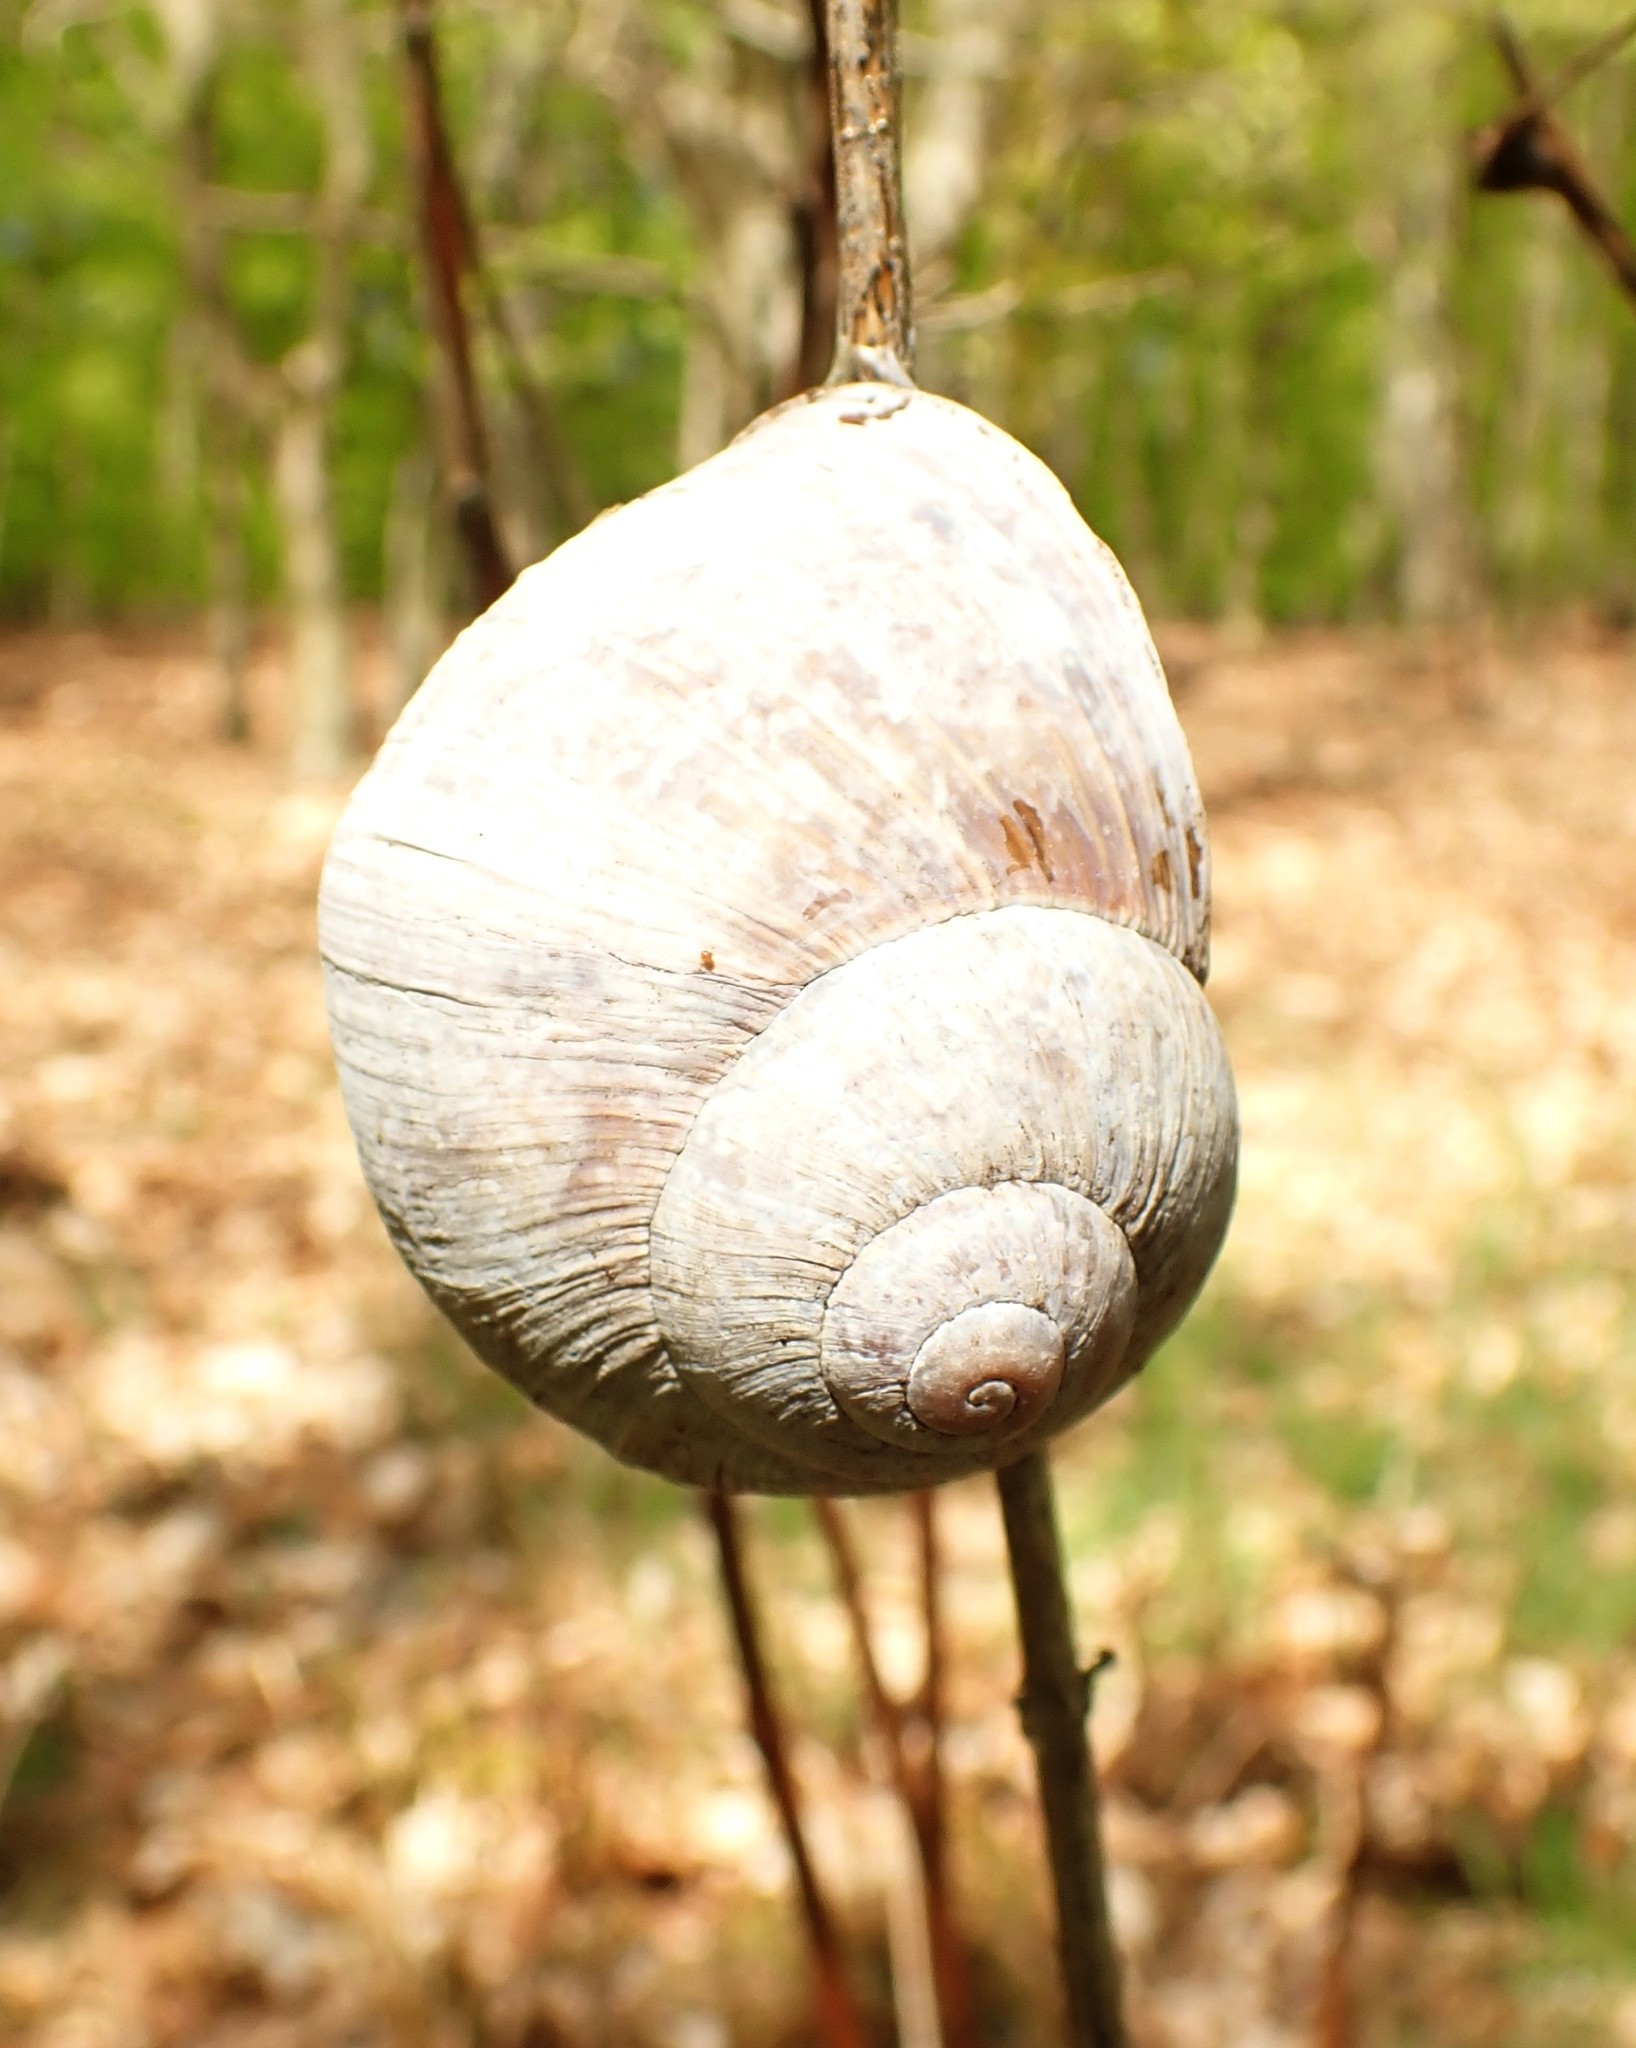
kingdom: Animalia
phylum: Mollusca
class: Gastropoda
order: Stylommatophora
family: Helicidae
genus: Helix
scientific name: Helix pomatia
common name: Roman snail
